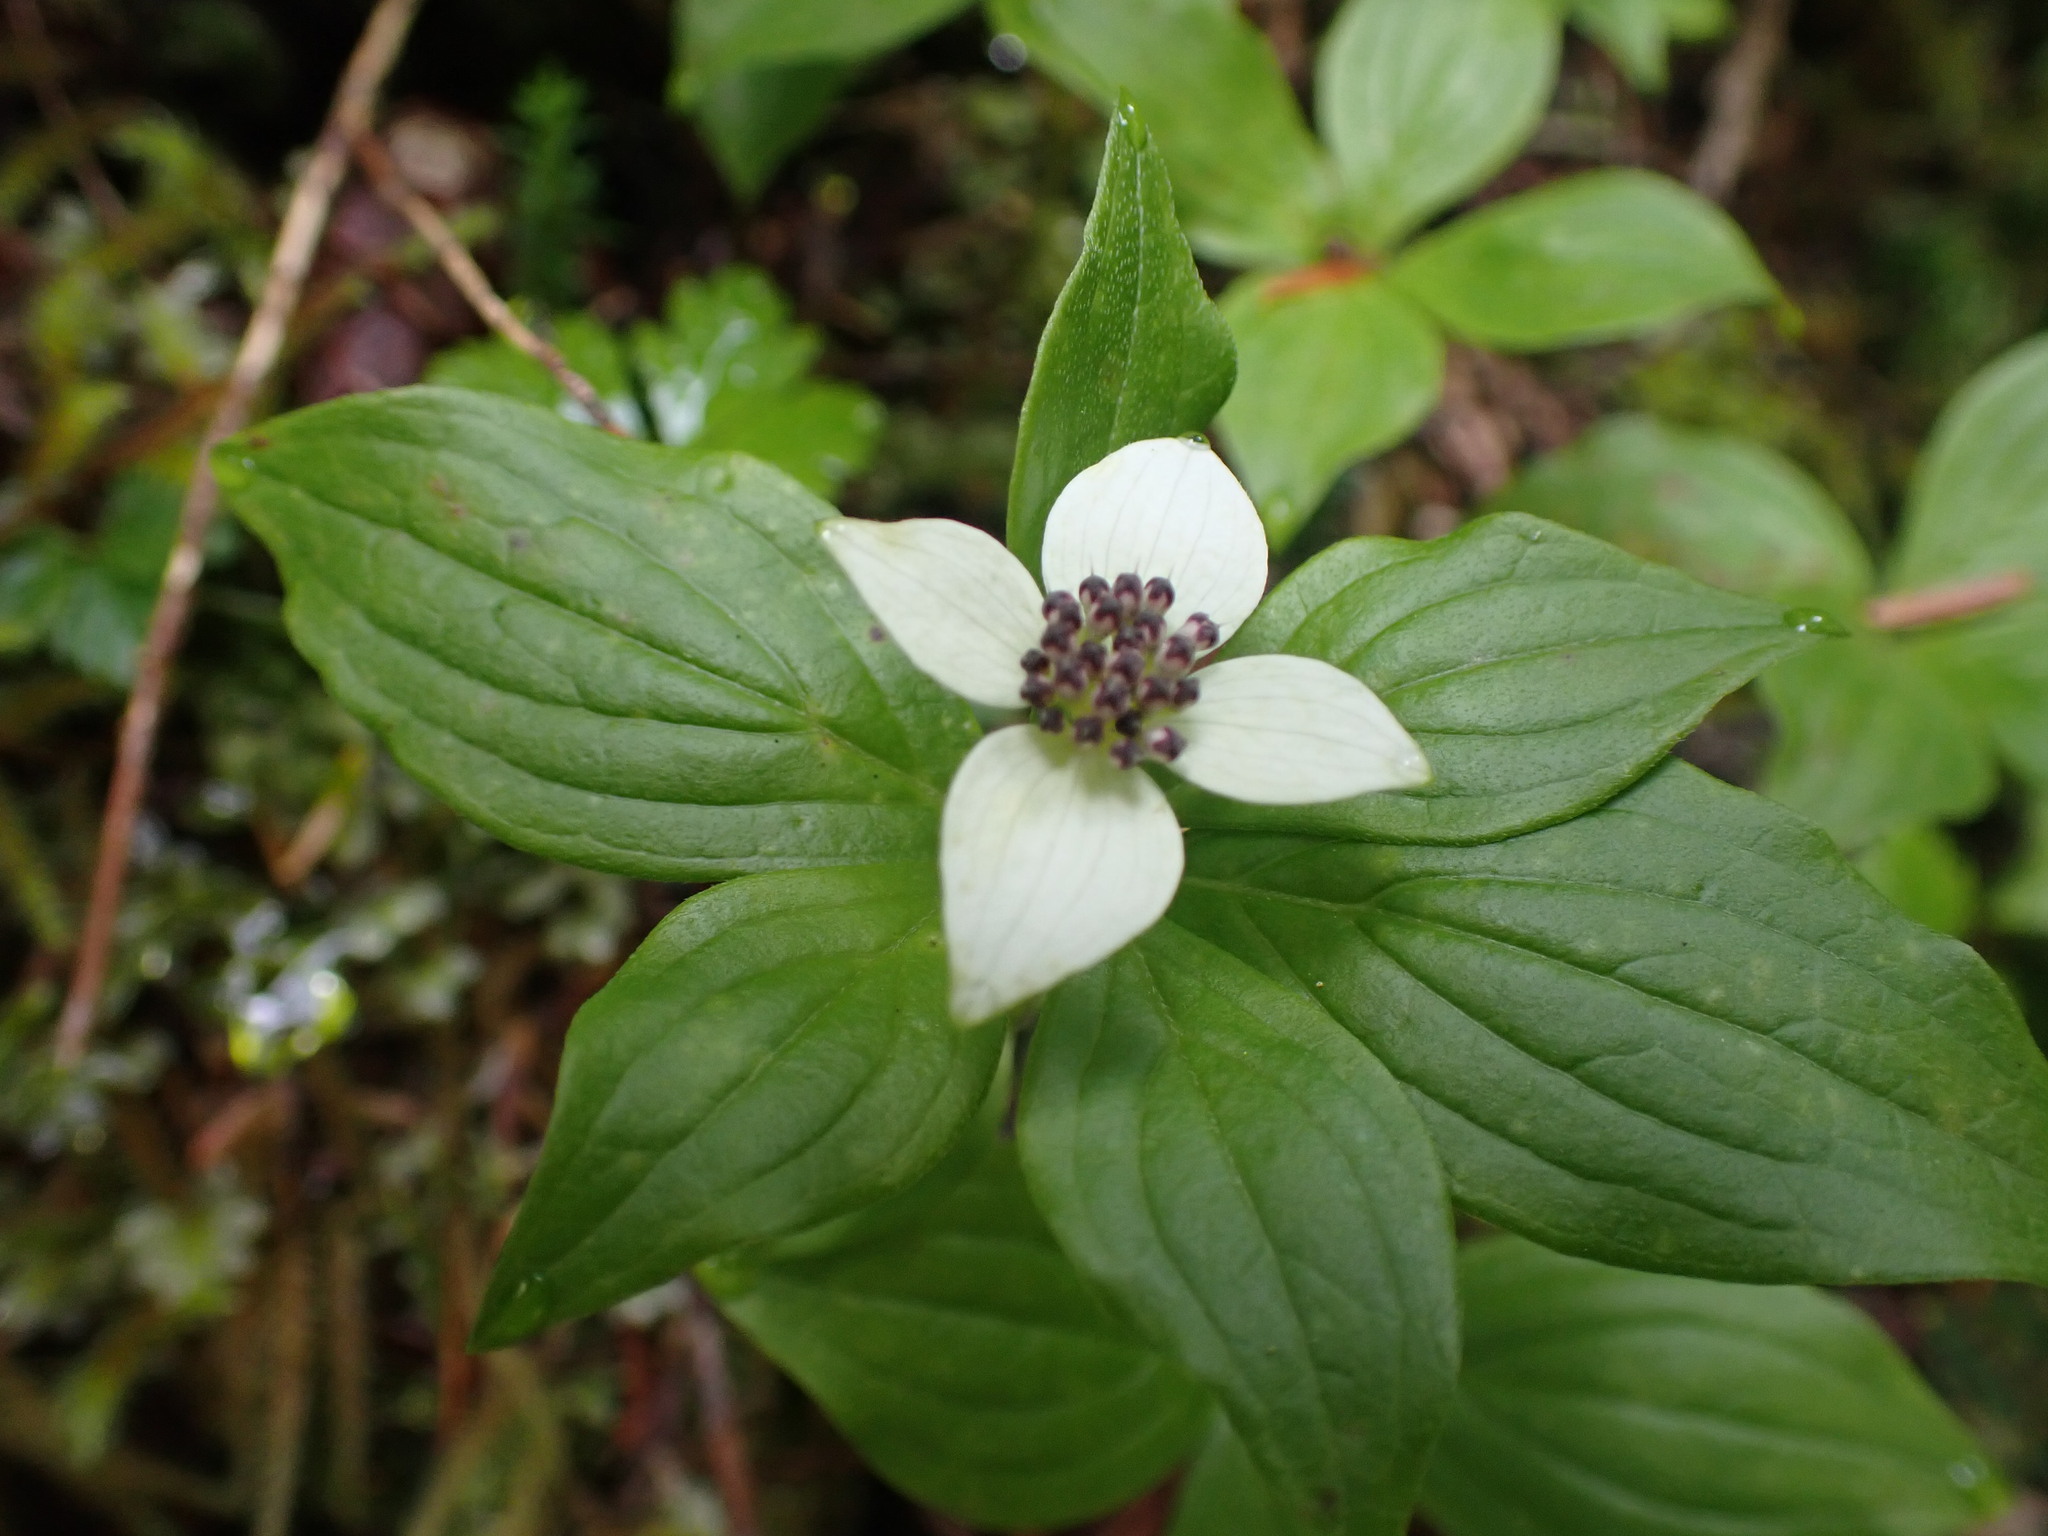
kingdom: Plantae
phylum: Tracheophyta
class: Magnoliopsida
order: Cornales
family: Cornaceae
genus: Cornus
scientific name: Cornus unalaschkensis
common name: Alaska bunchberry
